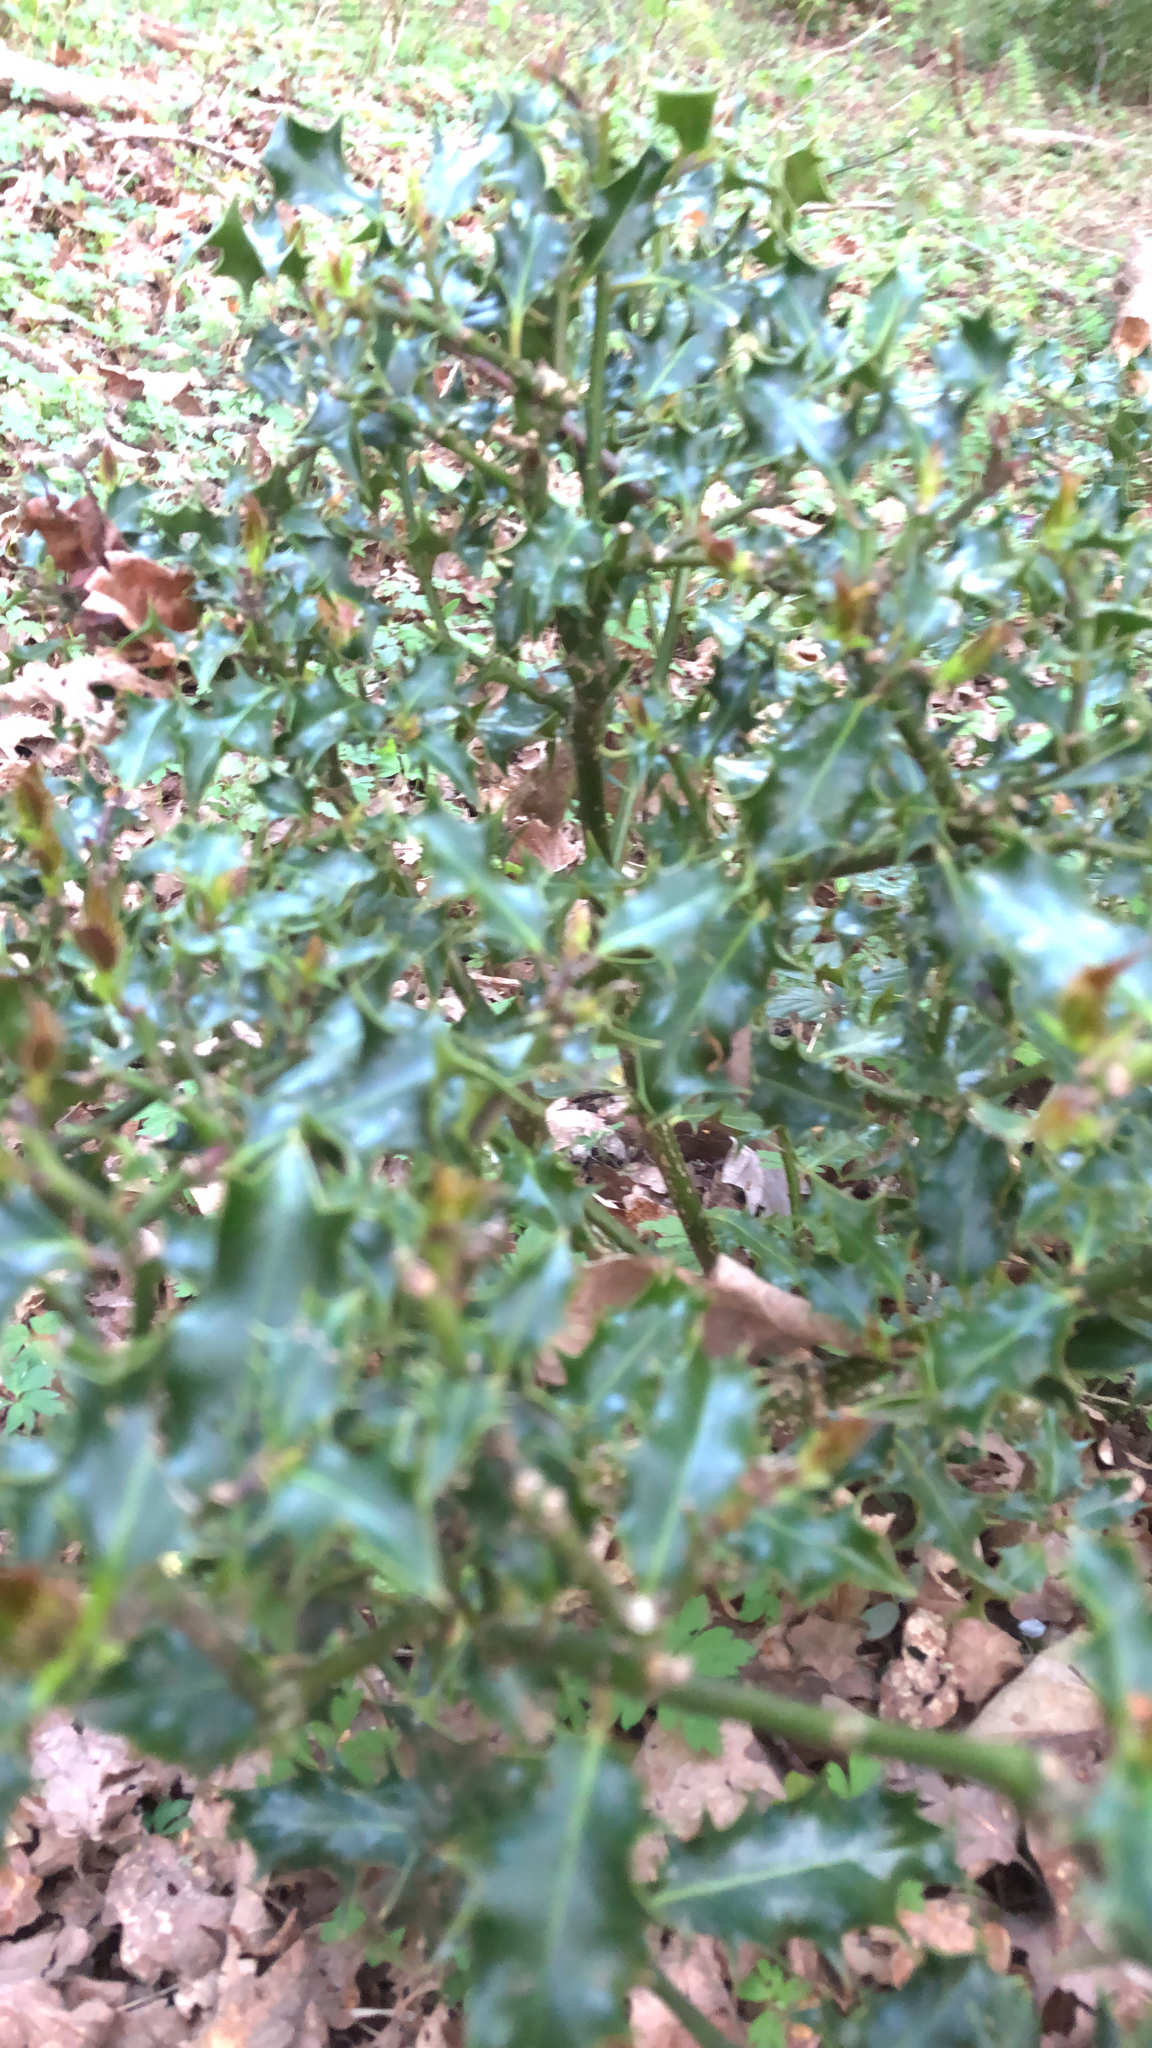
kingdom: Plantae
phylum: Tracheophyta
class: Magnoliopsida
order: Aquifoliales
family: Aquifoliaceae
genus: Ilex
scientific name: Ilex aquifolium
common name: English holly
